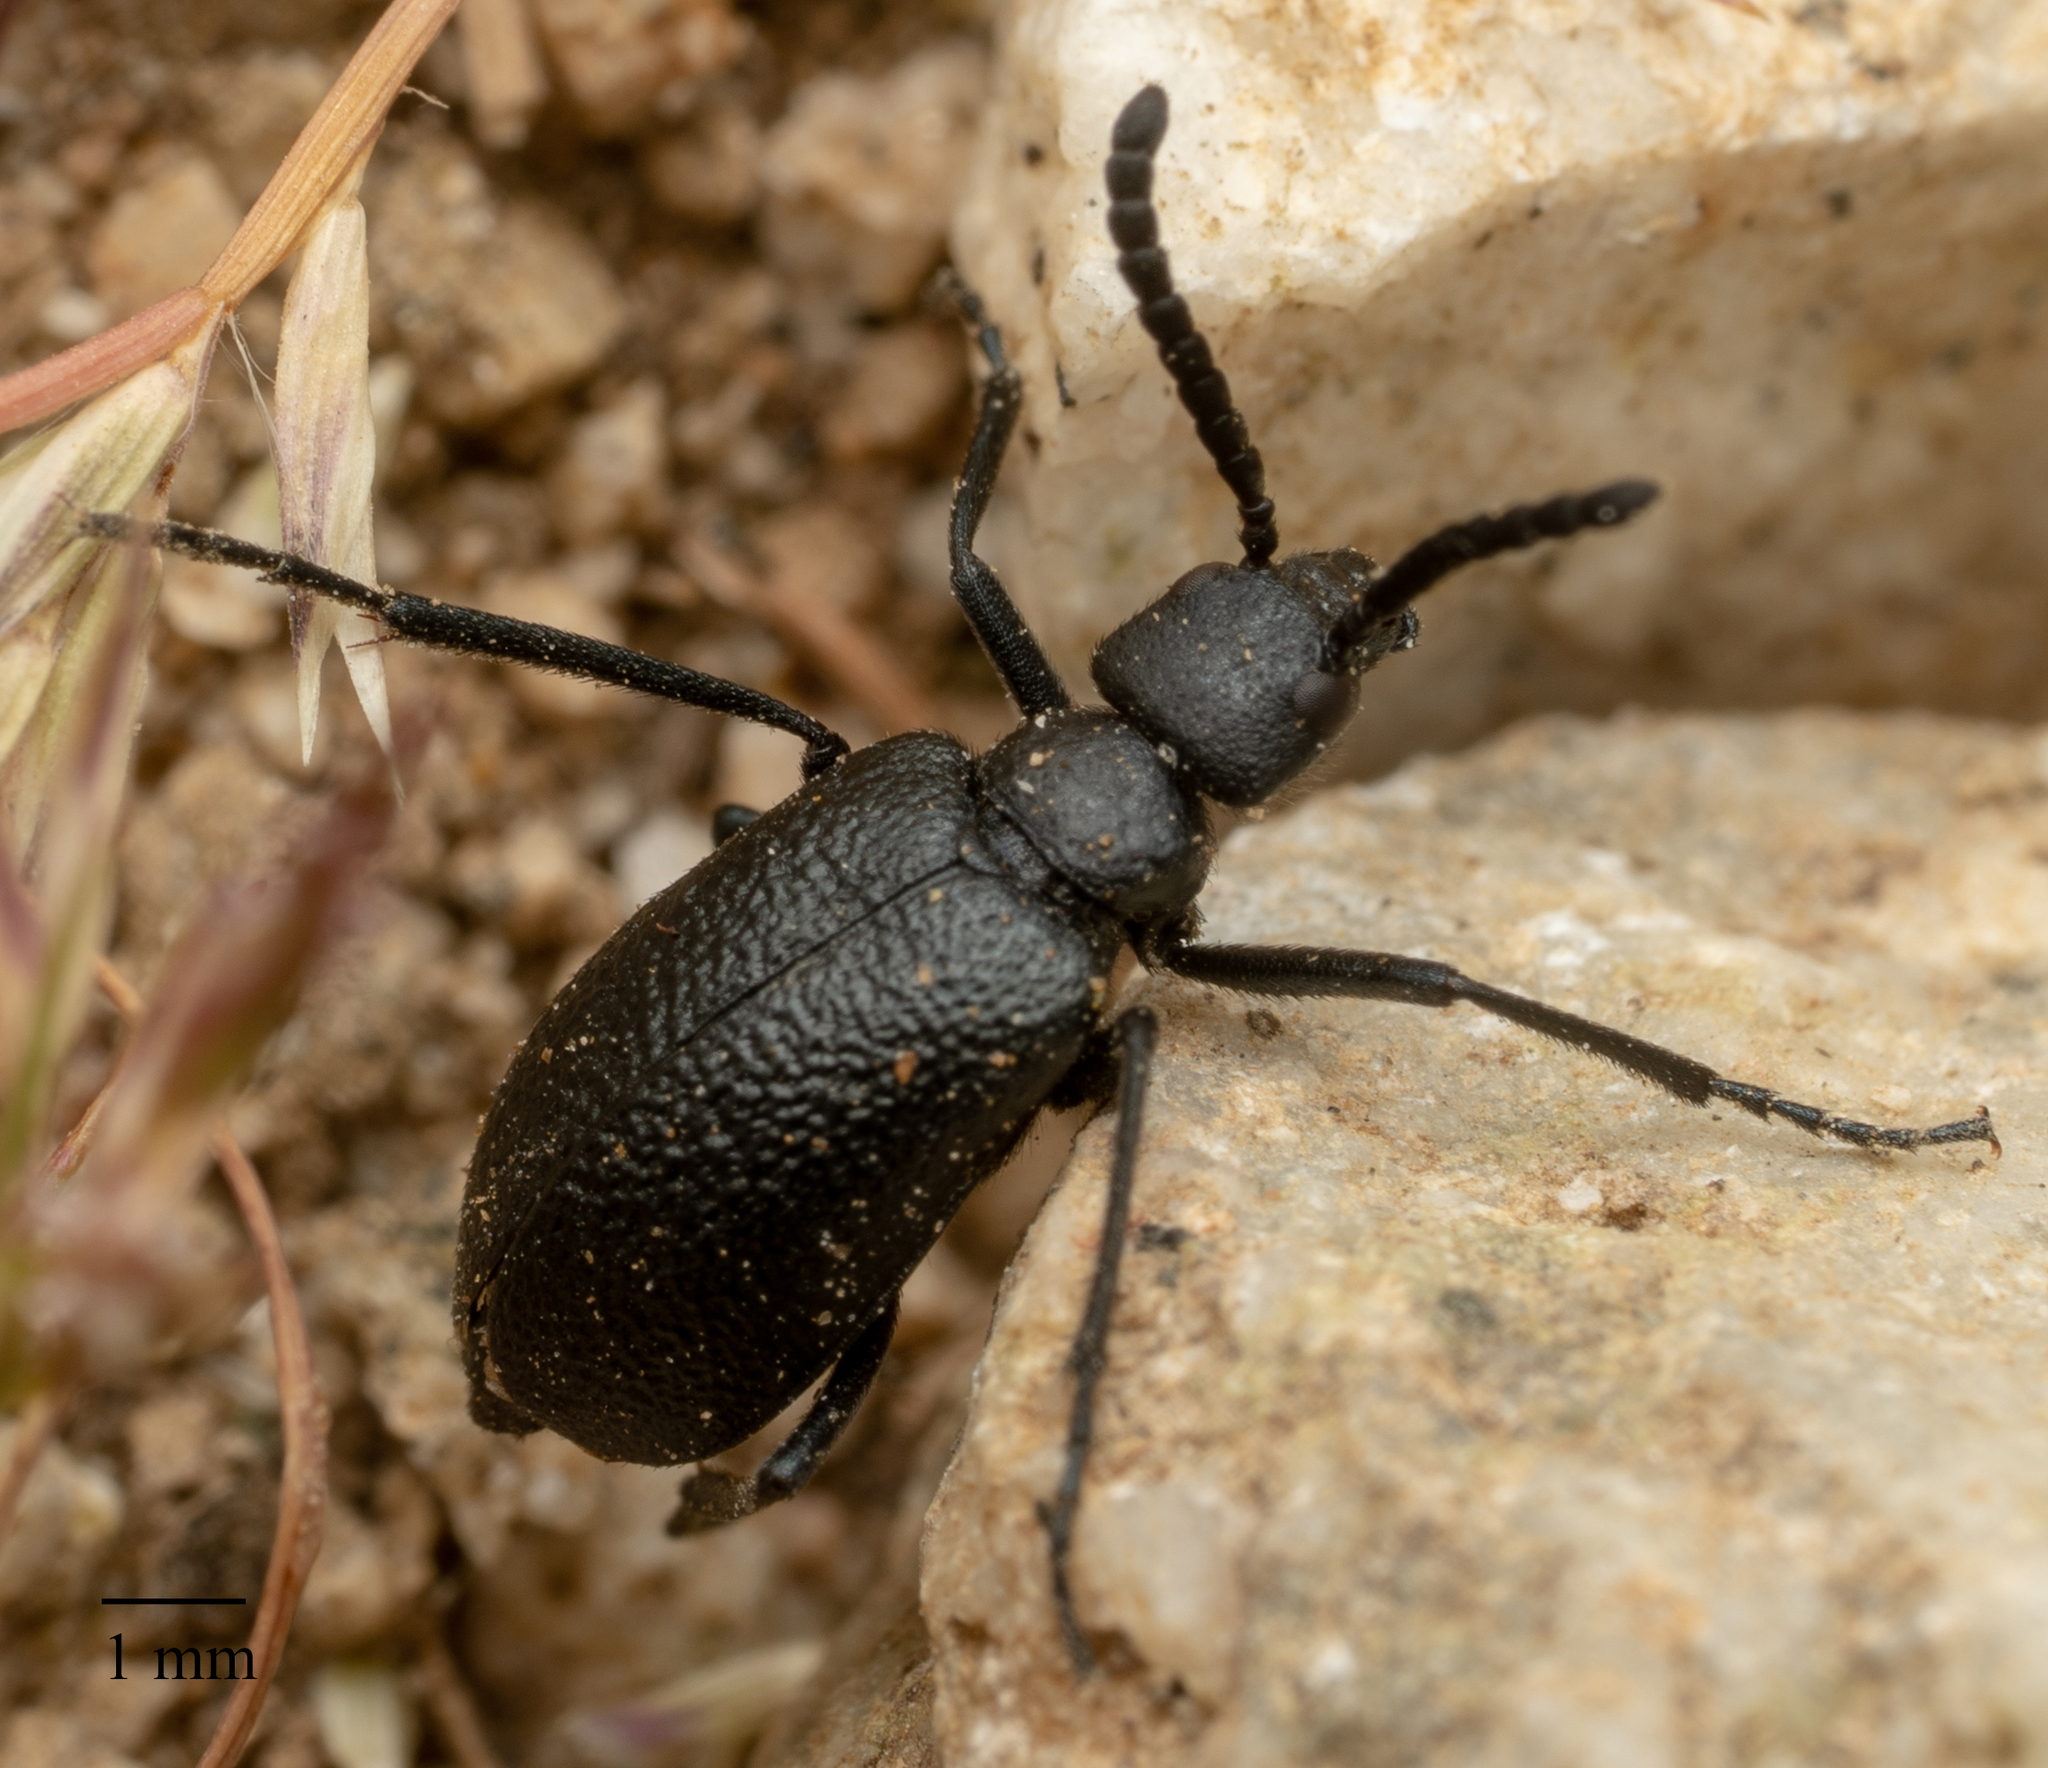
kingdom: Animalia
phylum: Arthropoda
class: Insecta
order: Coleoptera
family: Meloidae
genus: Cordylospasta
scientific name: Cordylospasta opaca
